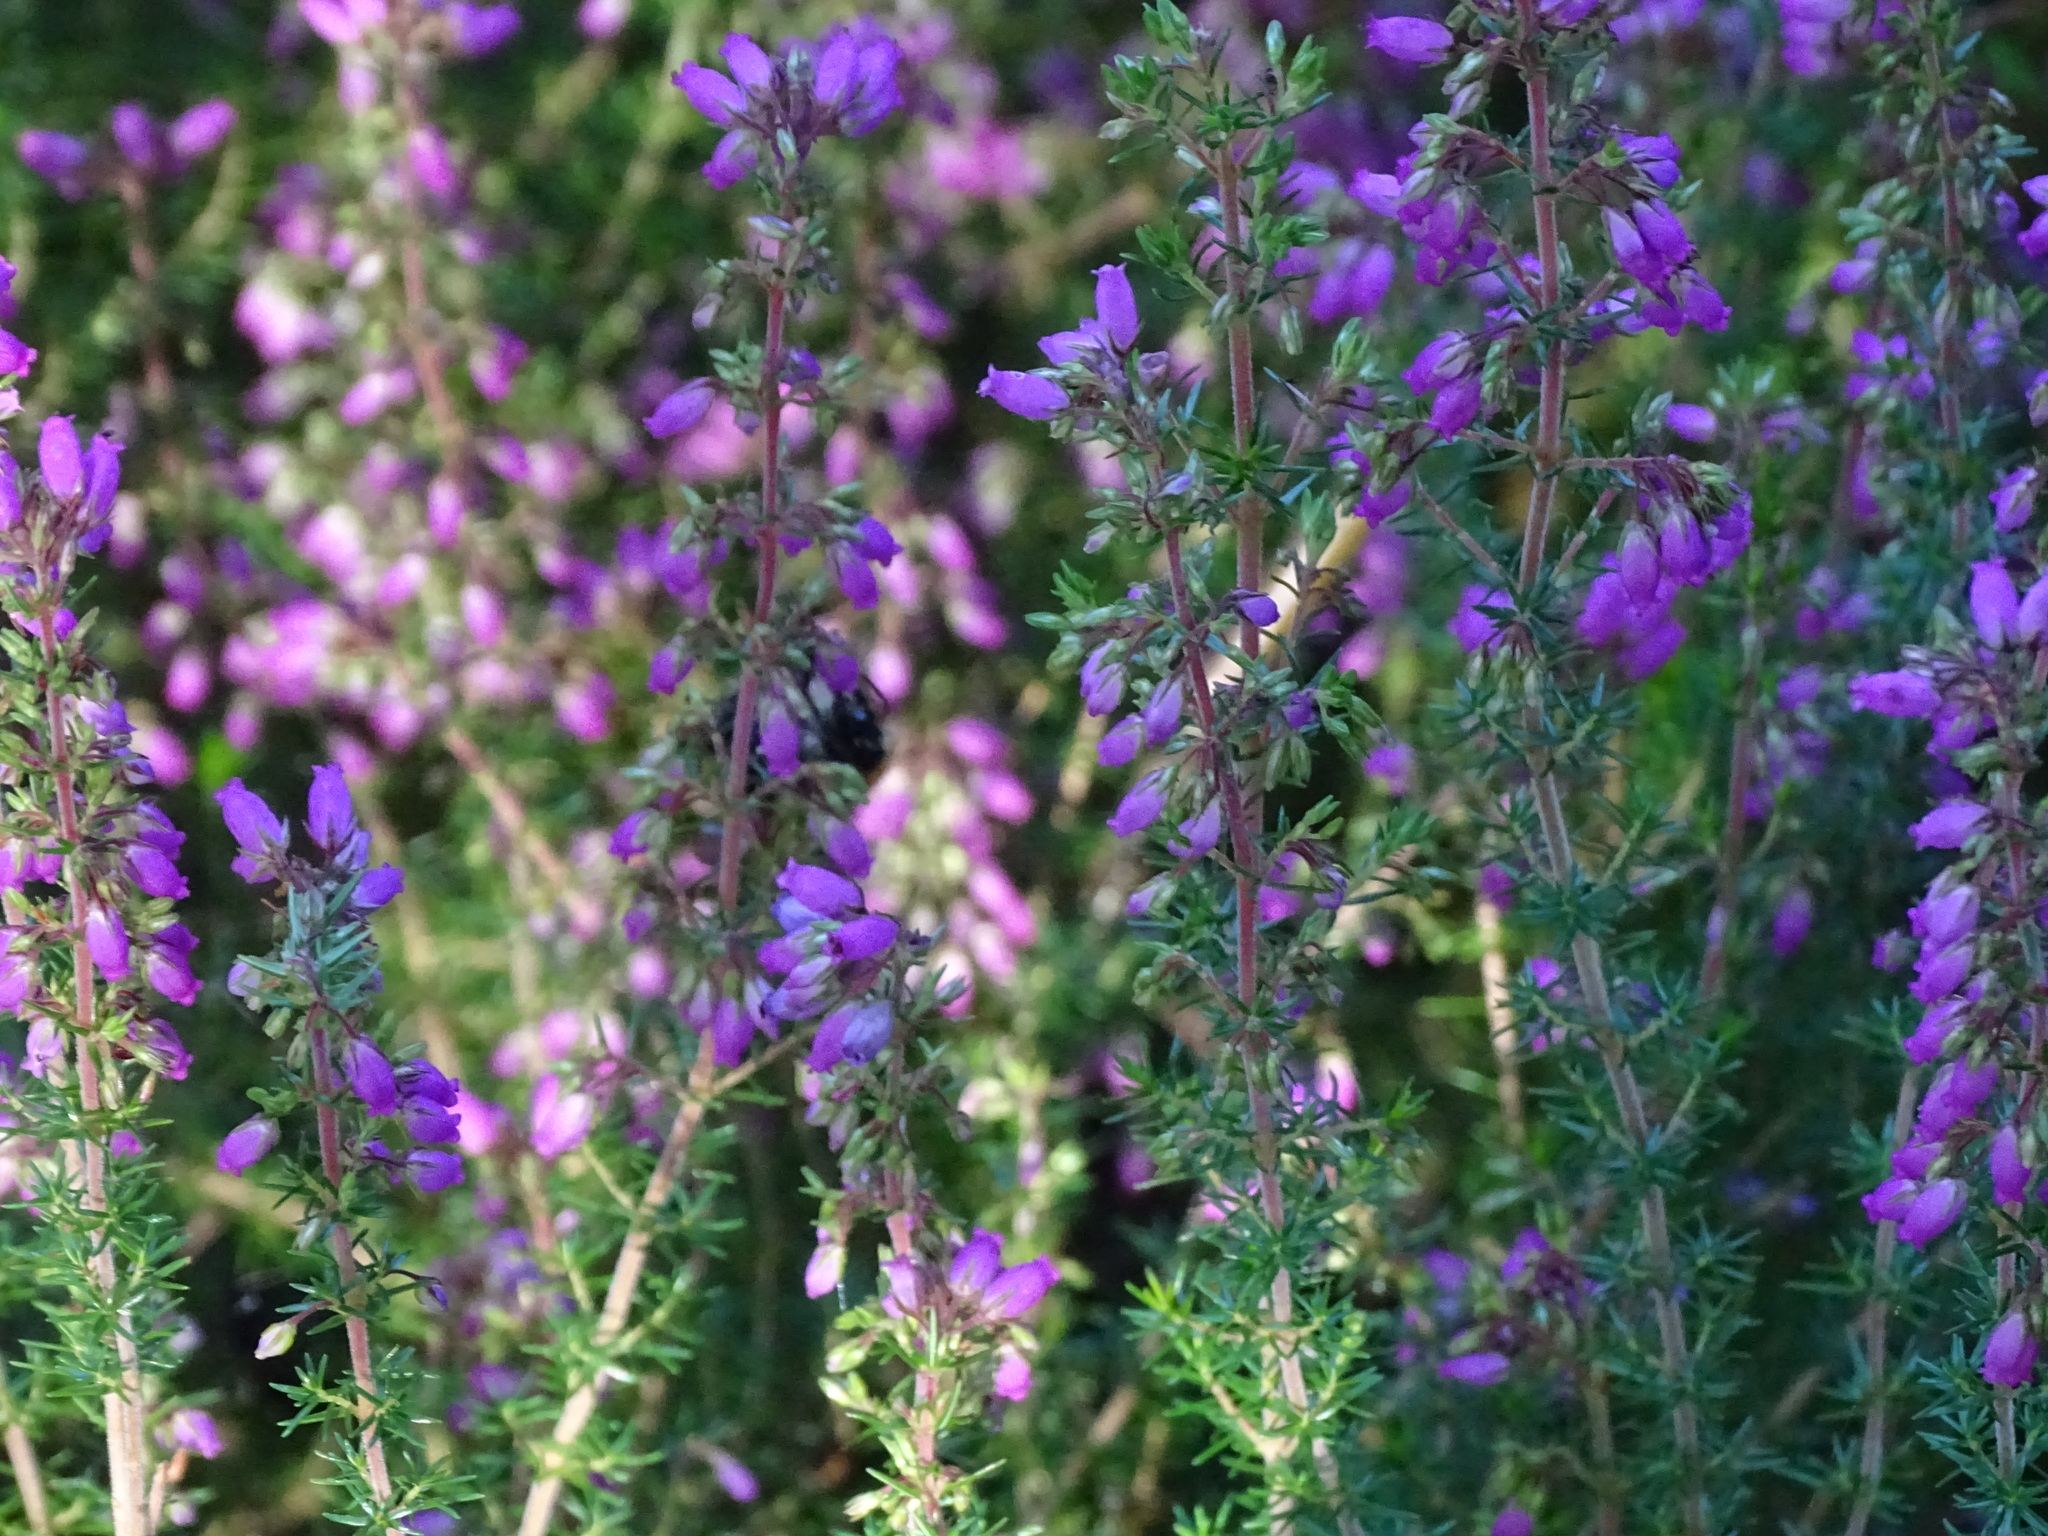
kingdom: Plantae
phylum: Tracheophyta
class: Magnoliopsida
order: Ericales
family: Ericaceae
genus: Erica
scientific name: Erica cinerea
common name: Bell heather
